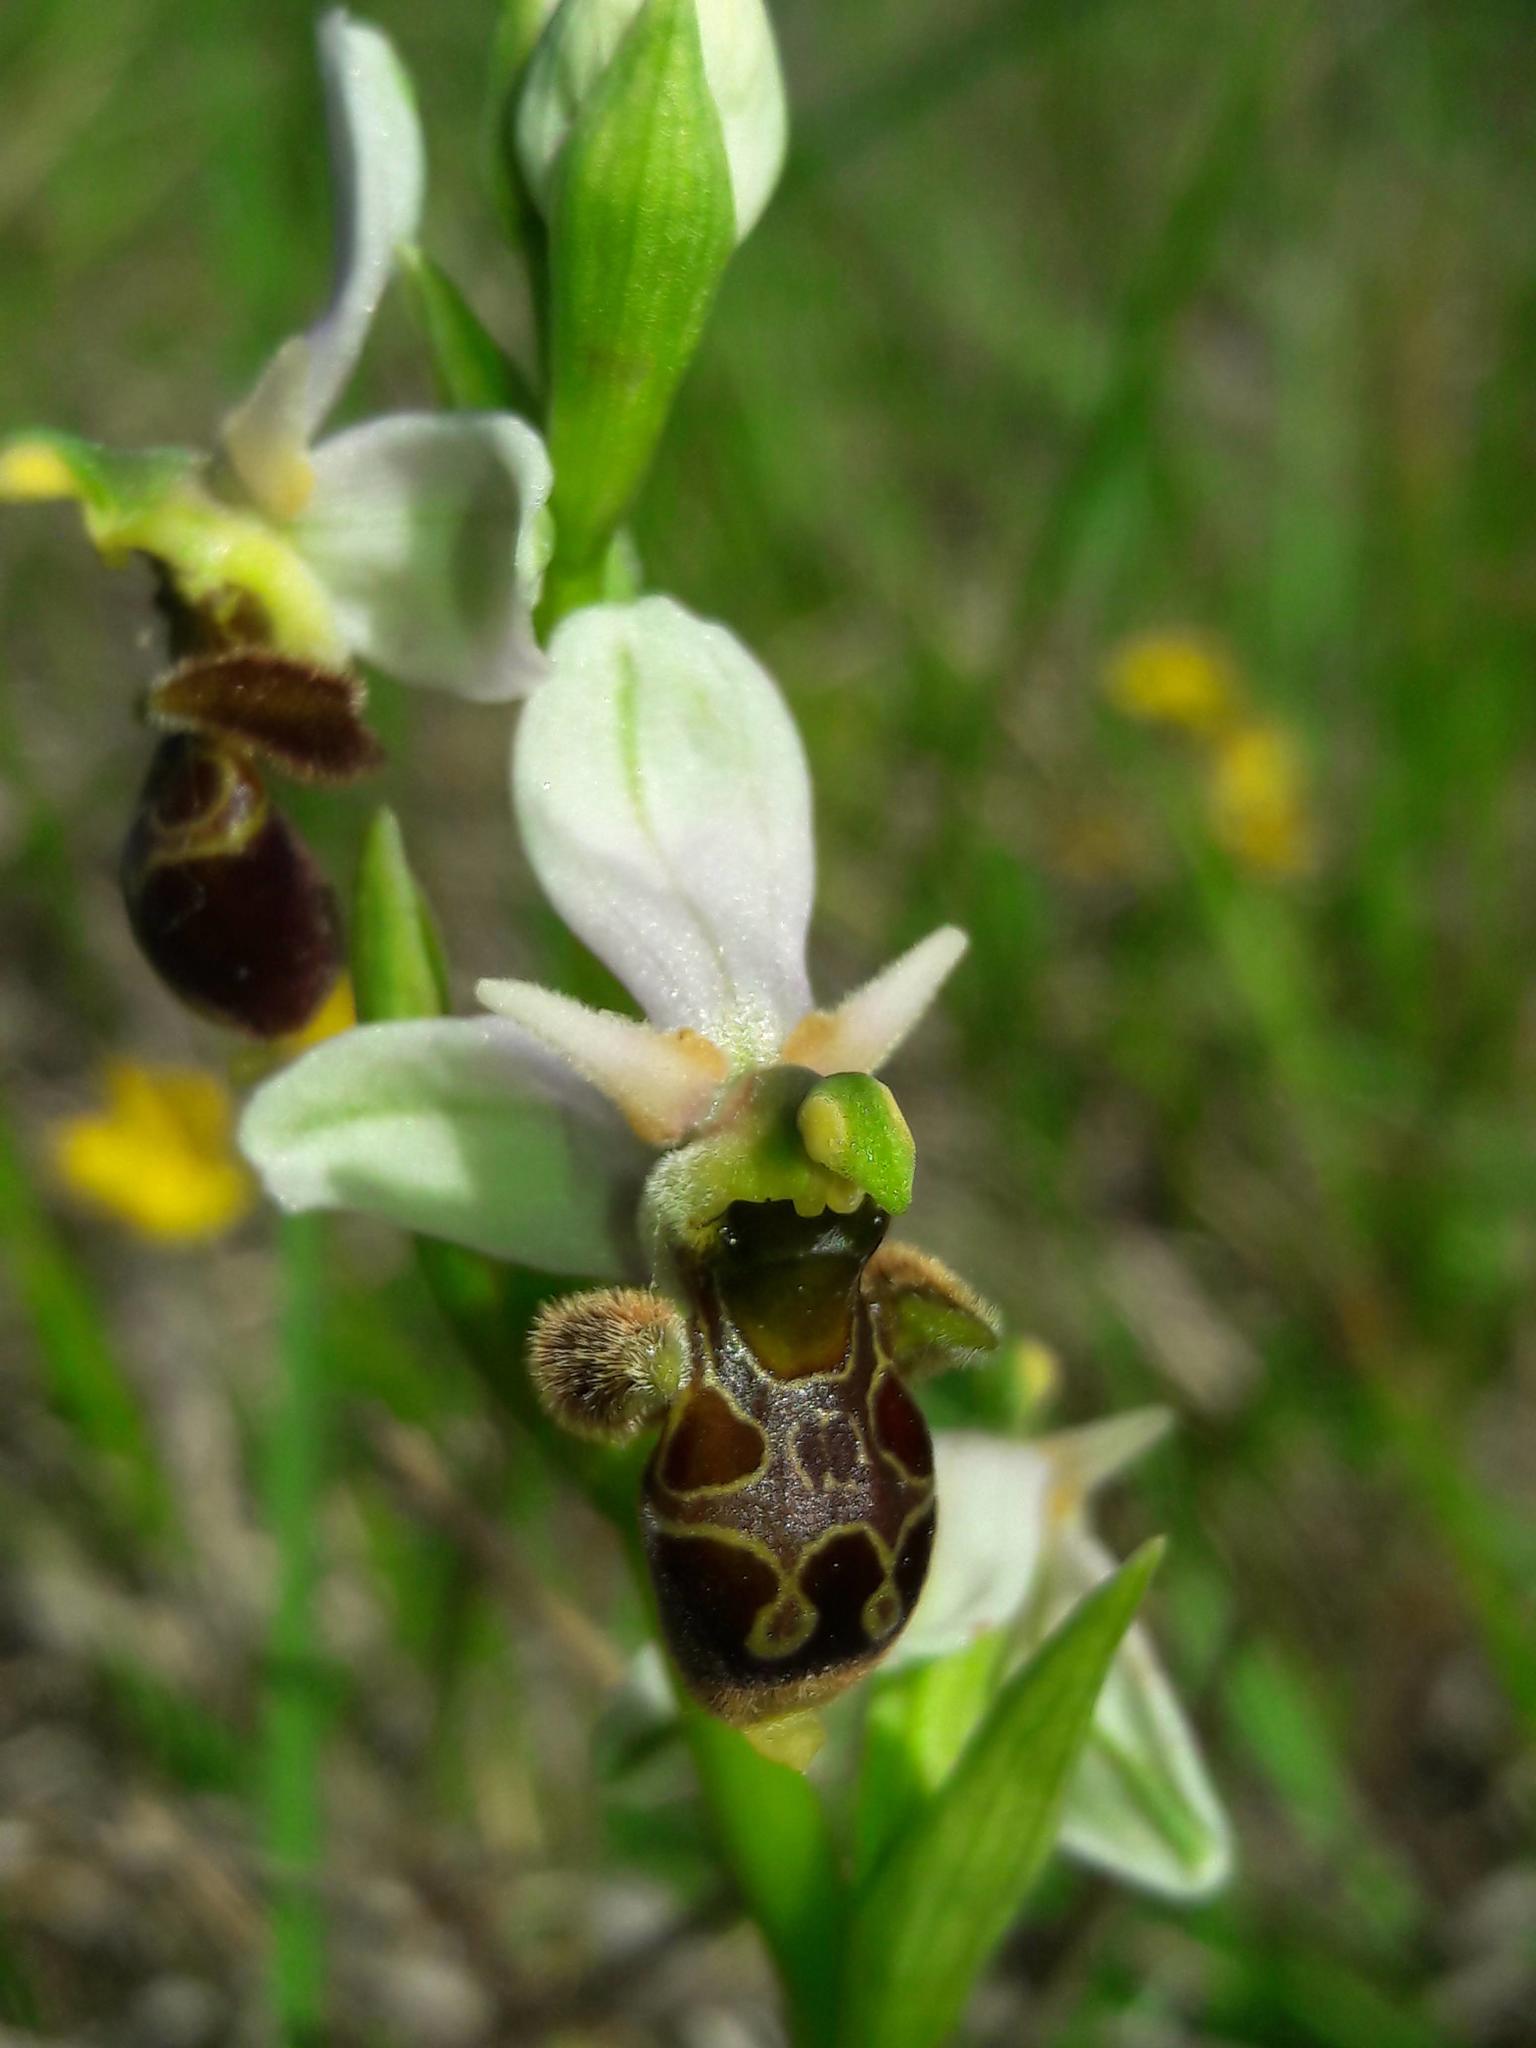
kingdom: Plantae
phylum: Tracheophyta
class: Liliopsida
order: Asparagales
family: Orchidaceae
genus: Ophrys
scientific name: Ophrys scolopax
